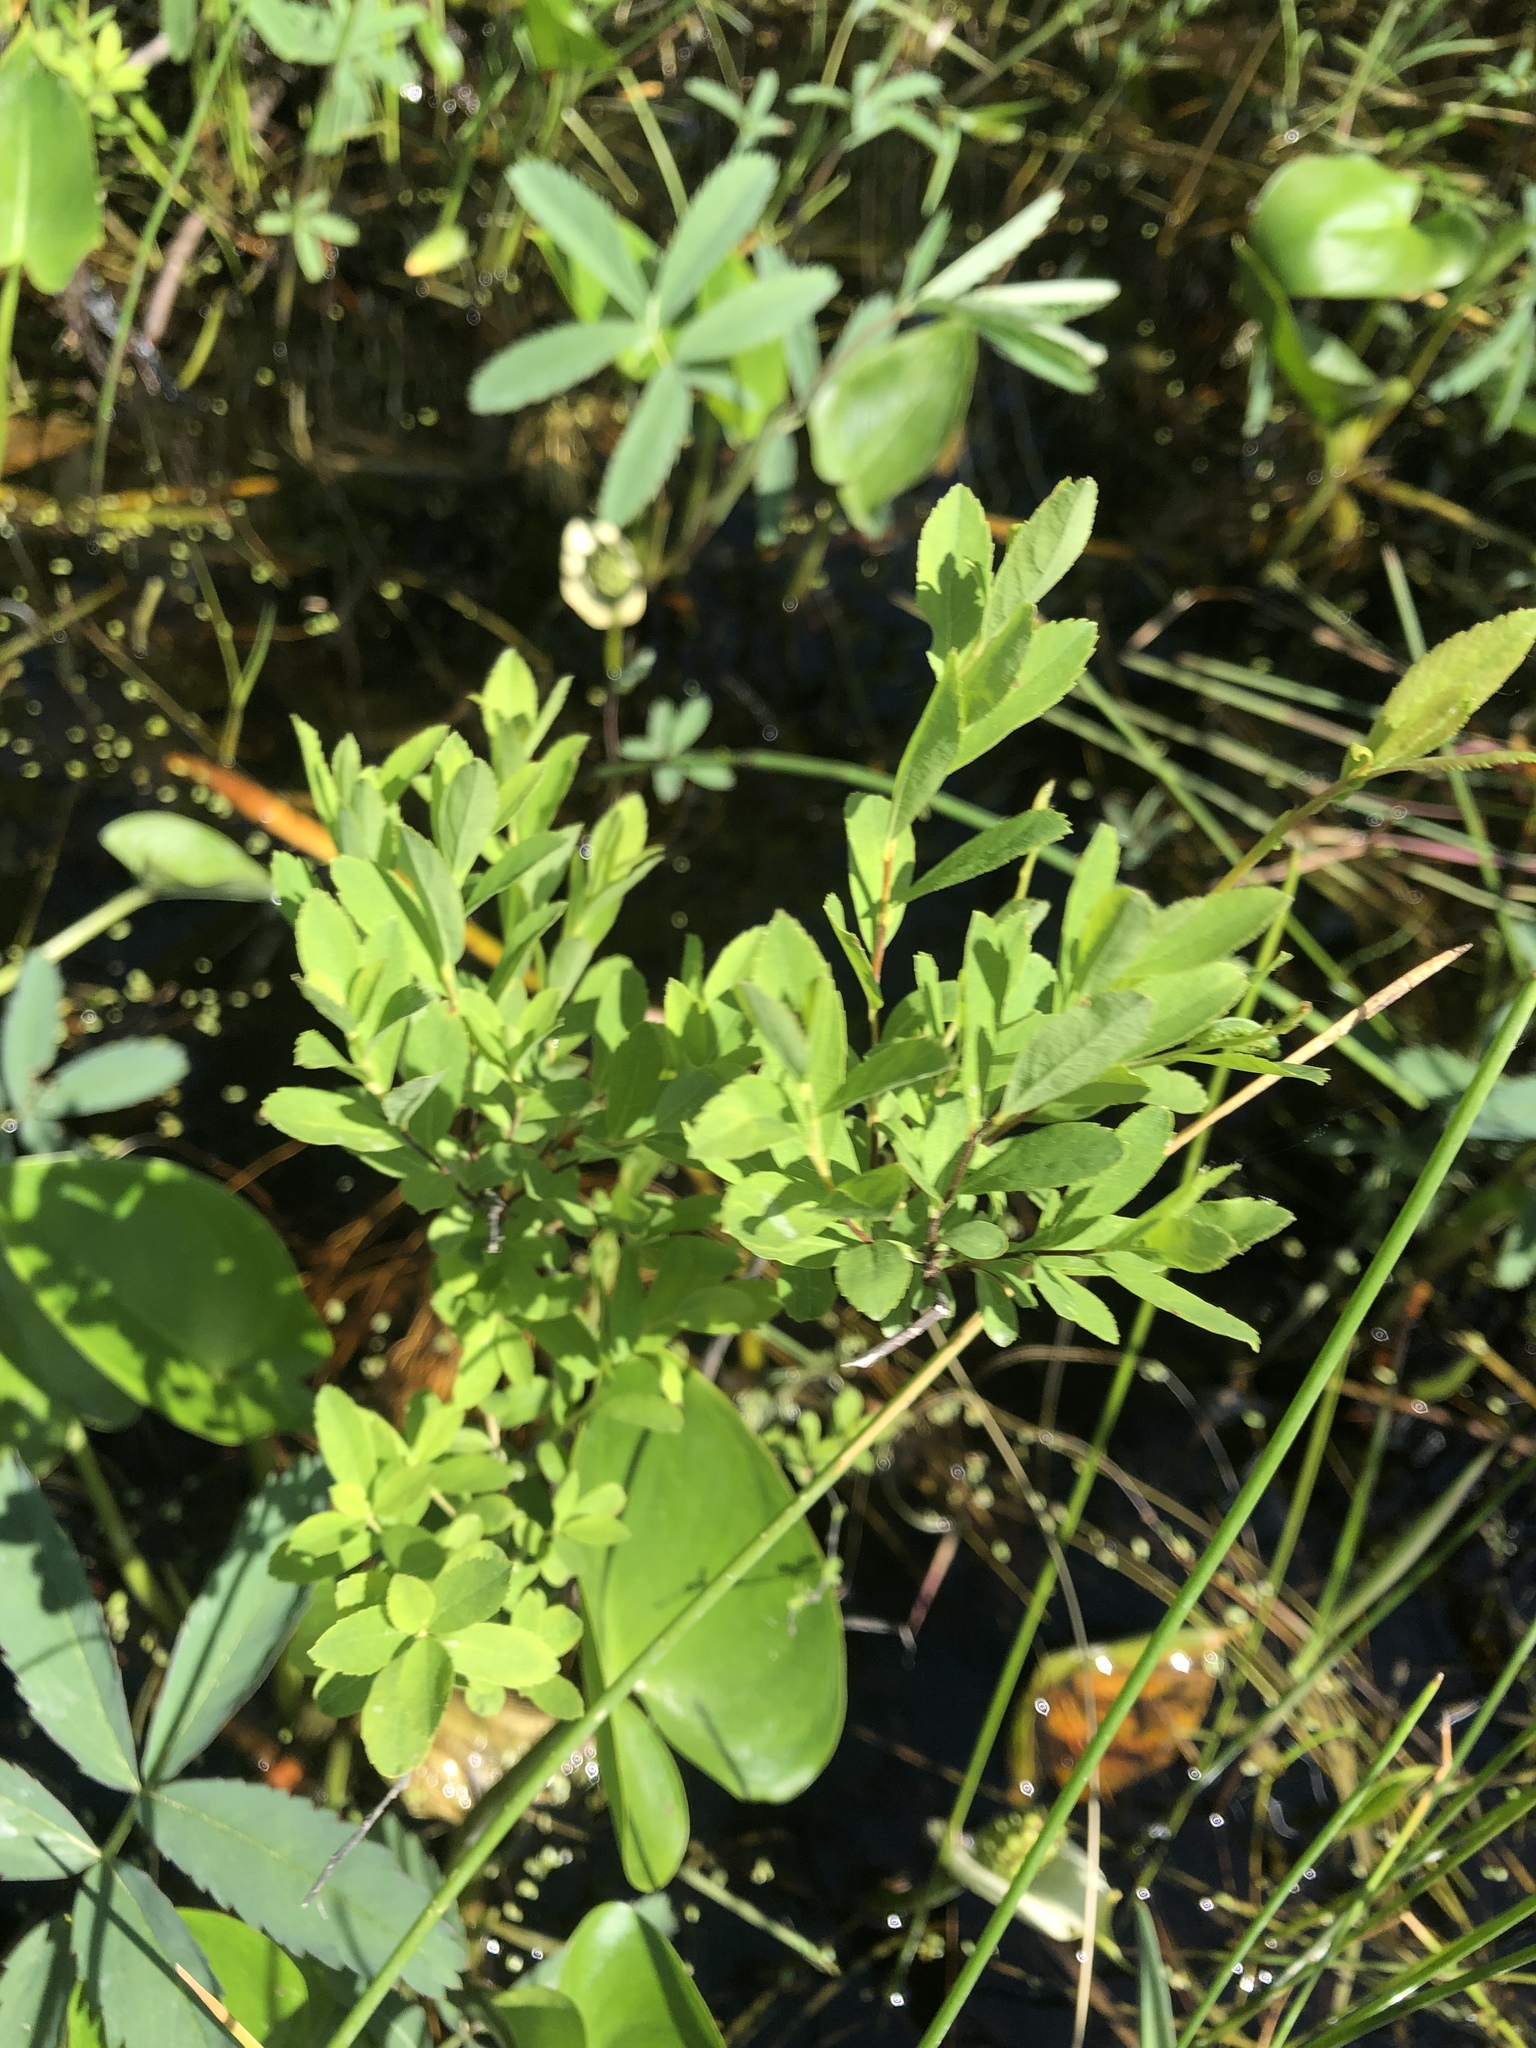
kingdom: Plantae
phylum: Tracheophyta
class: Magnoliopsida
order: Fagales
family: Myricaceae
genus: Myrica
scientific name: Myrica gale
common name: Sweet gale
